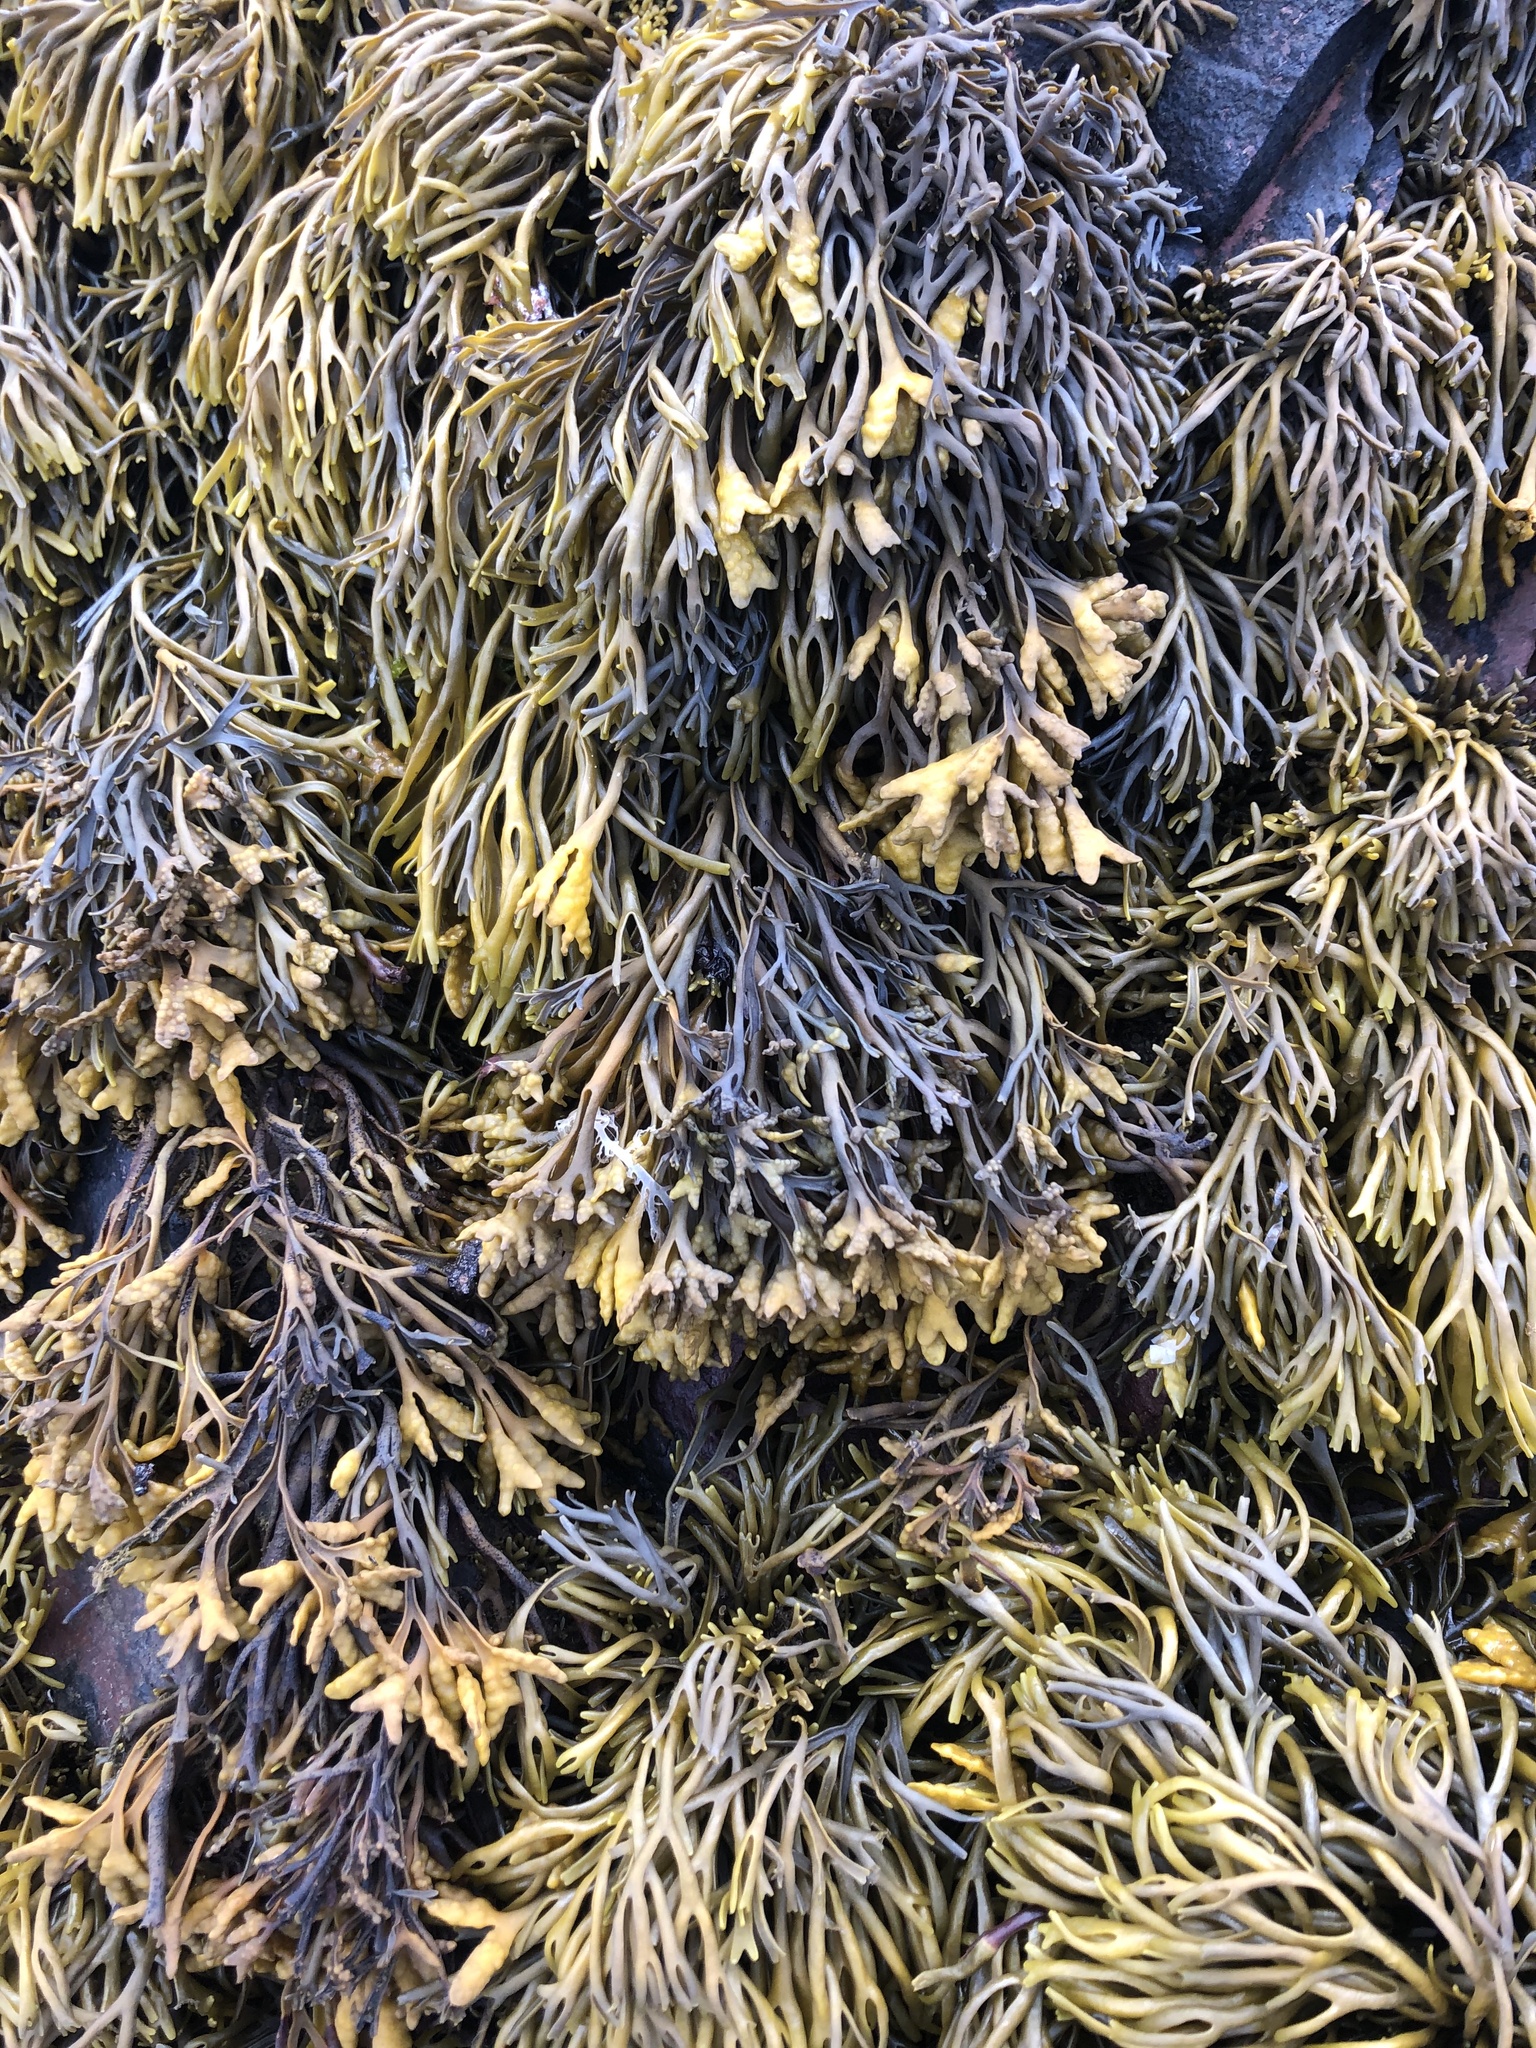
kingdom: Chromista
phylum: Ochrophyta
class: Phaeophyceae
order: Fucales
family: Fucaceae
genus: Pelvetia
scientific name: Pelvetia canaliculata
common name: Channelled wrack
